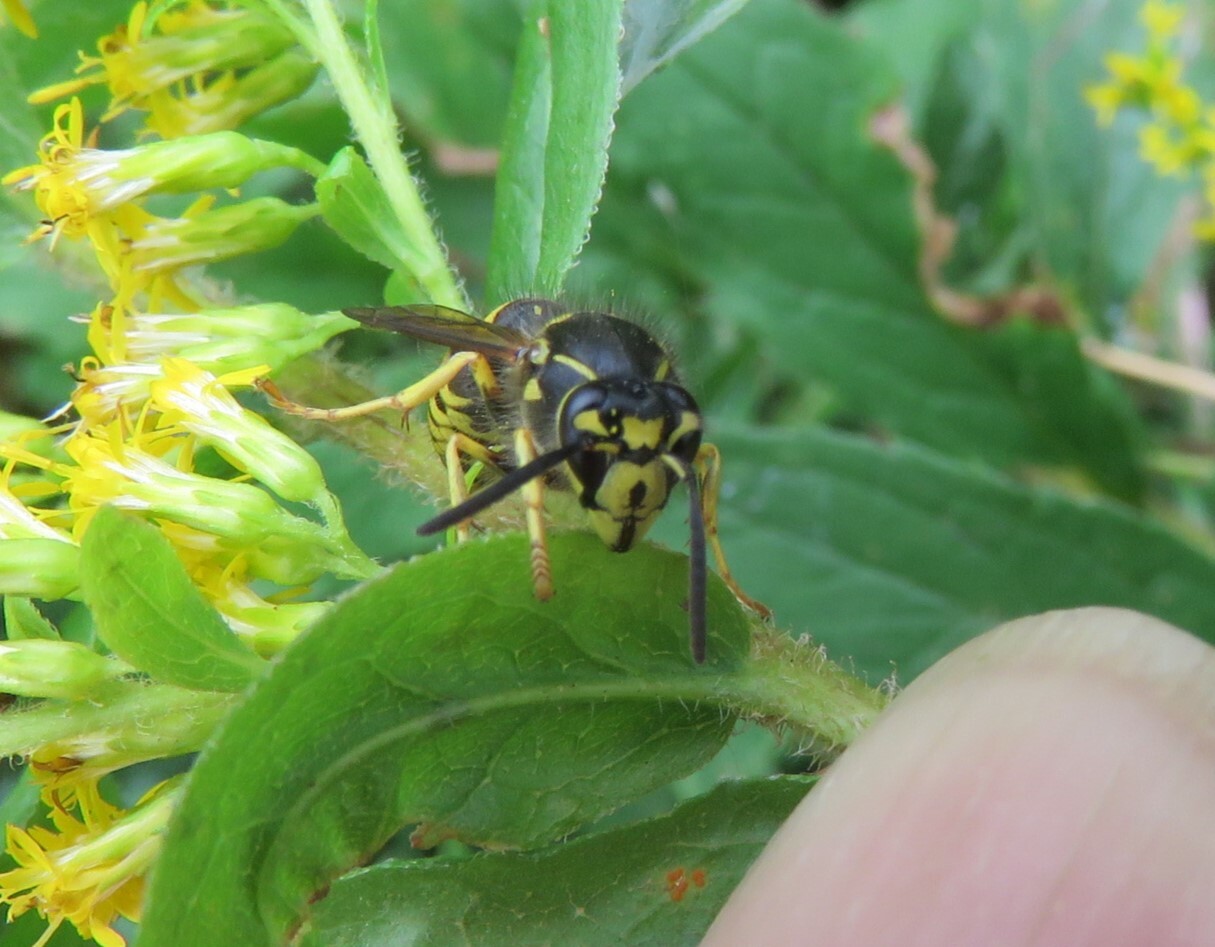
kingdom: Animalia
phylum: Arthropoda
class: Insecta
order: Hymenoptera
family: Vespidae
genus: Dolichovespula
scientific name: Dolichovespula arenaria
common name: Aerial yellowjacket
